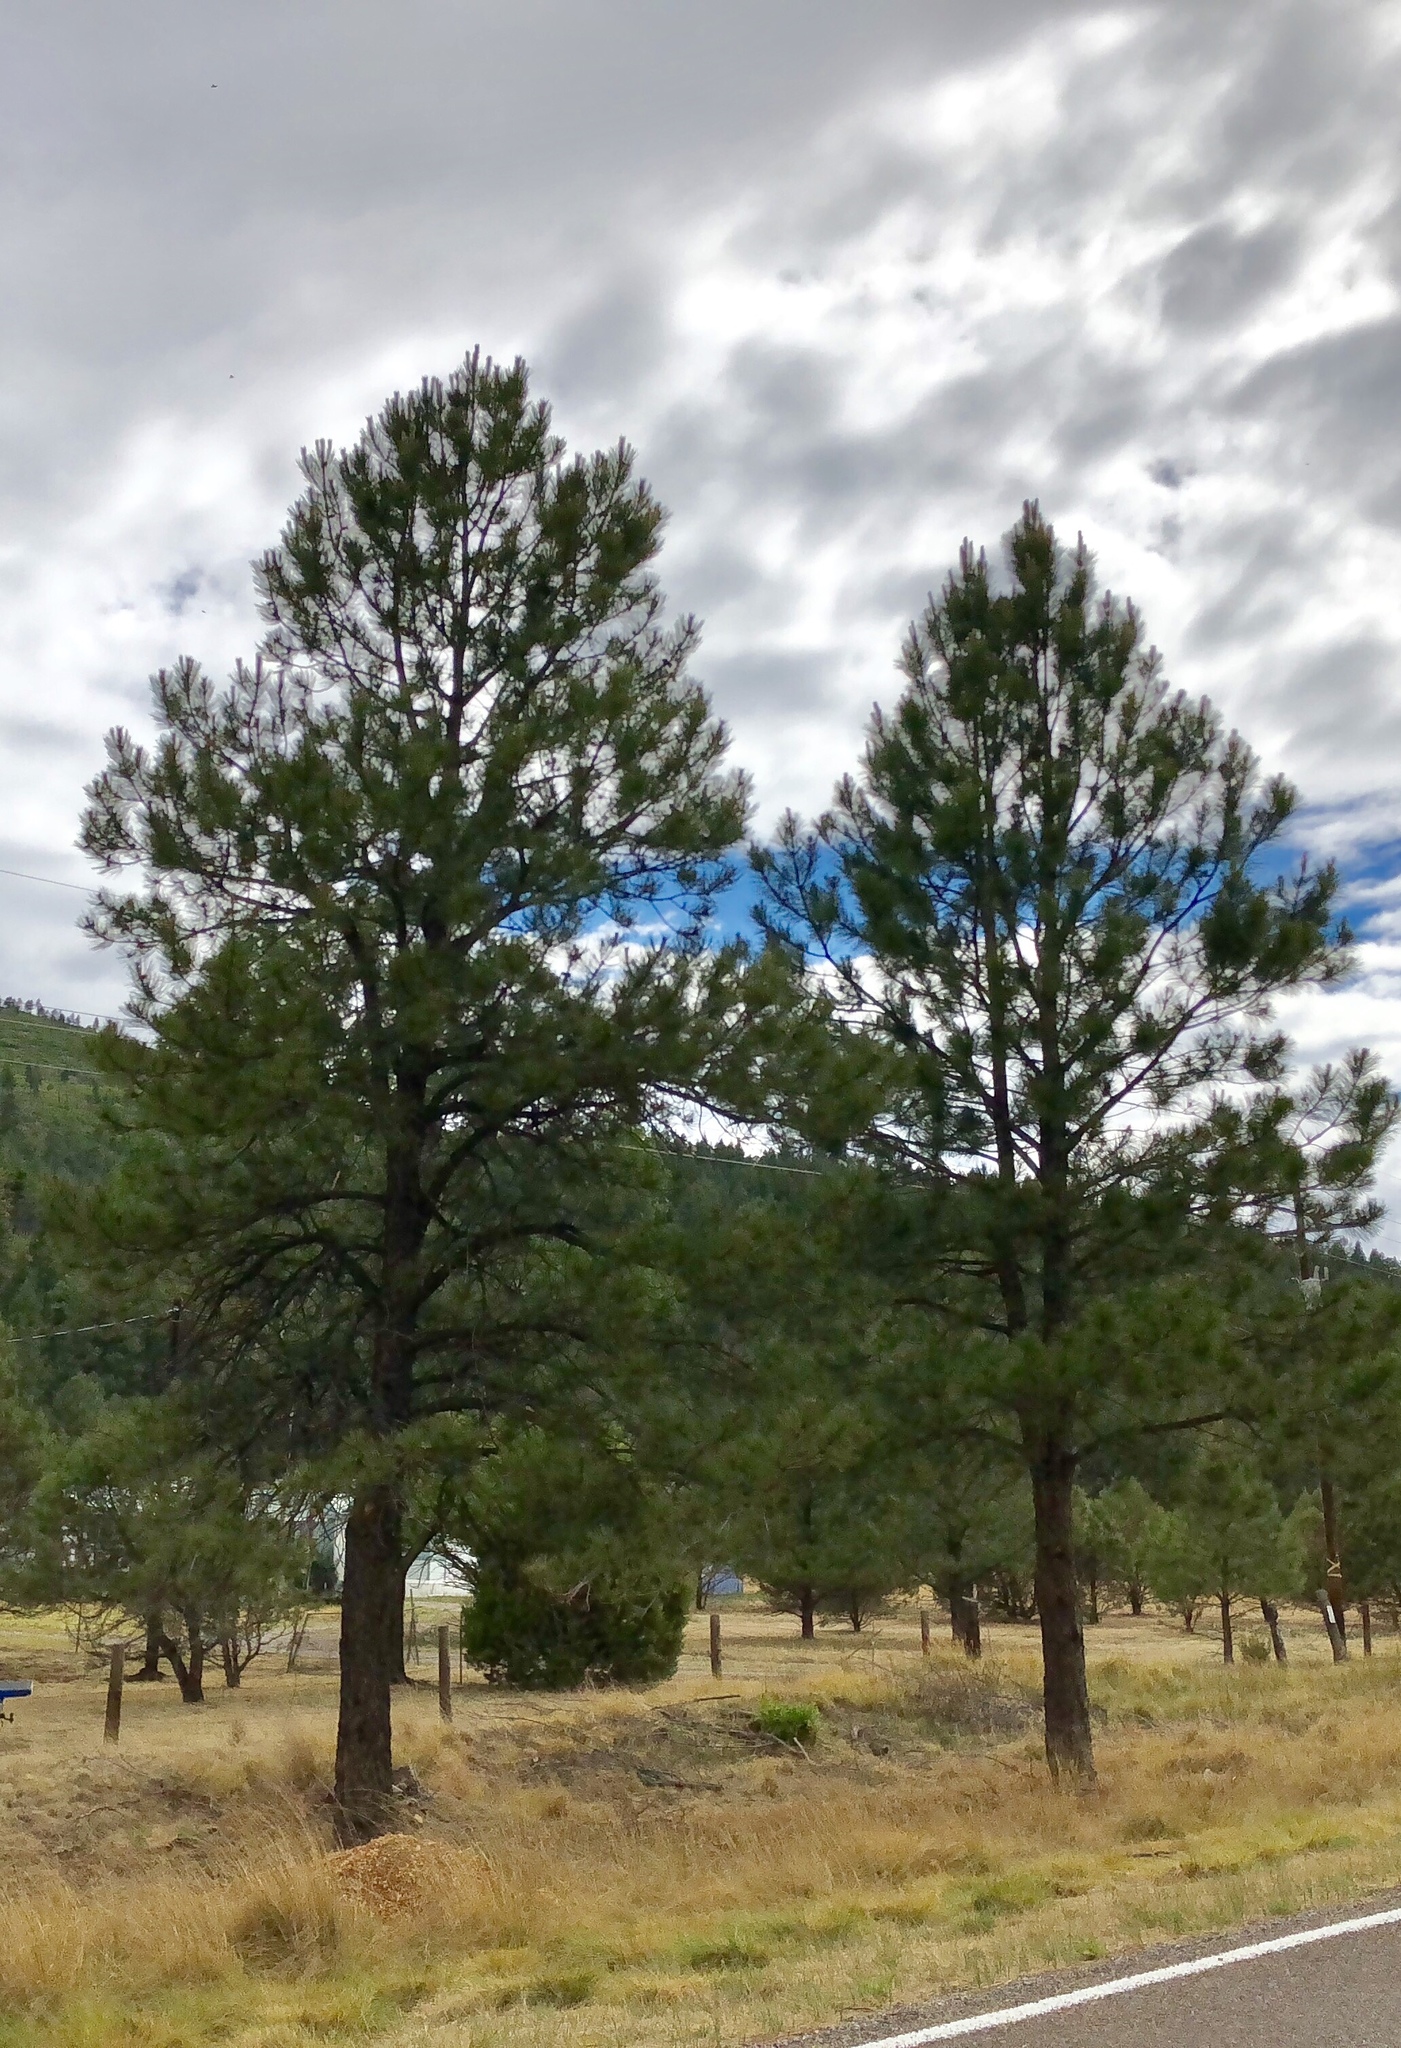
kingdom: Plantae
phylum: Tracheophyta
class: Pinopsida
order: Pinales
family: Pinaceae
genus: Pinus
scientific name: Pinus ponderosa
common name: Western yellow-pine
